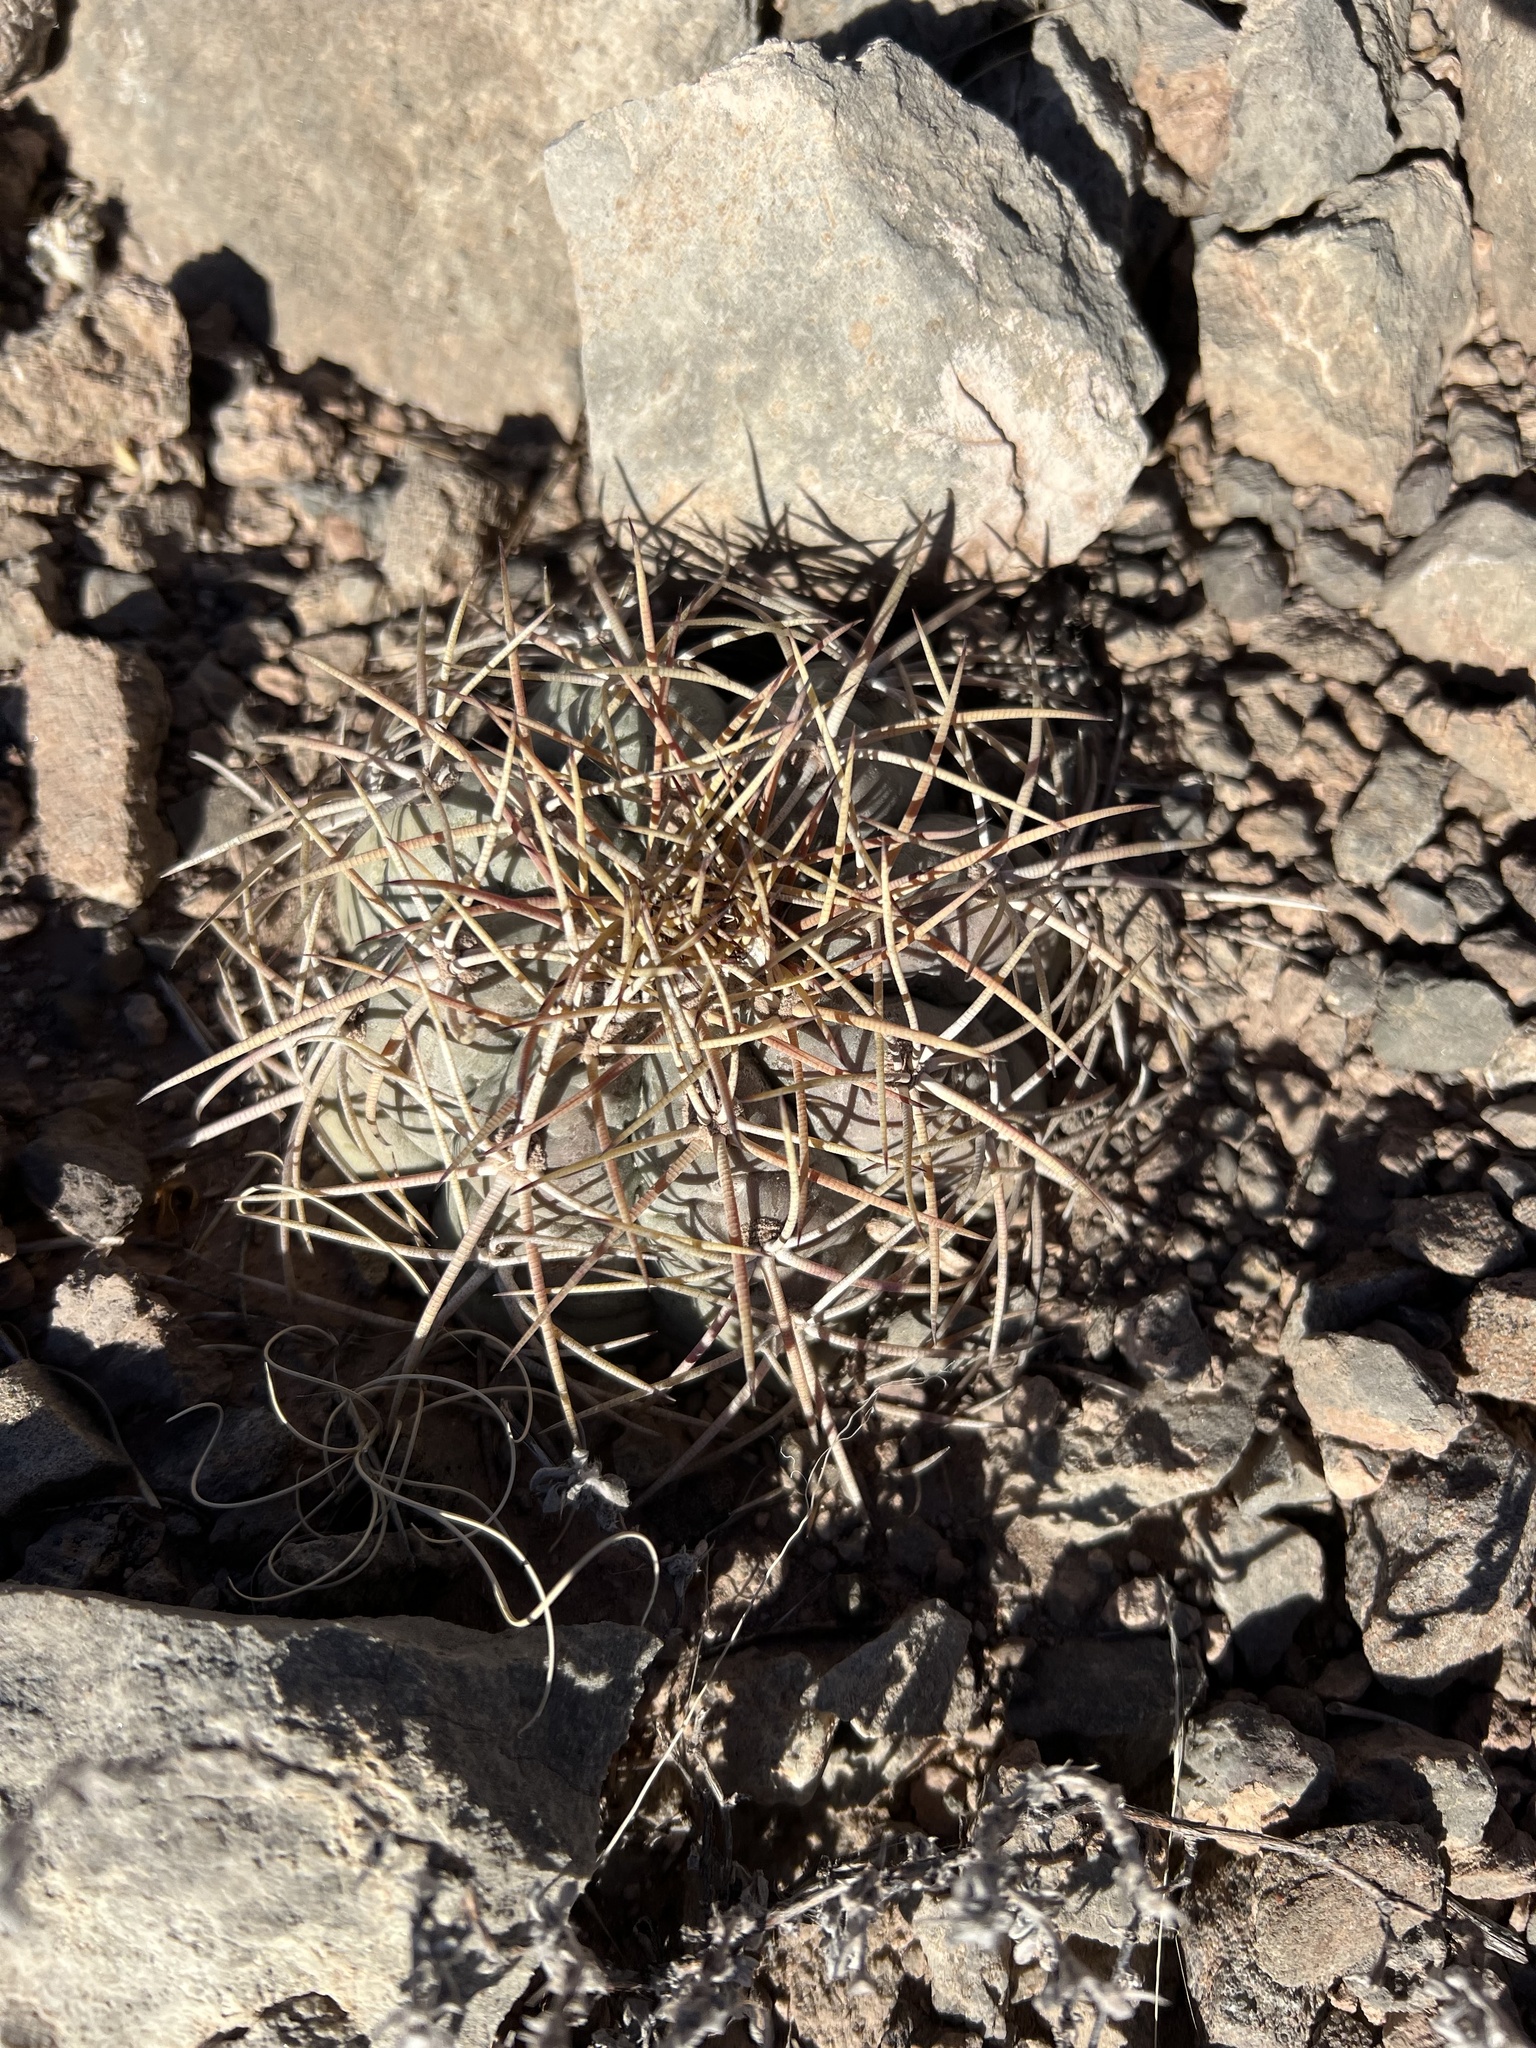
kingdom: Plantae
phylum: Tracheophyta
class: Magnoliopsida
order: Caryophyllales
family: Cactaceae
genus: Echinocactus
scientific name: Echinocactus horizonthalonius
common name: Devilshead
